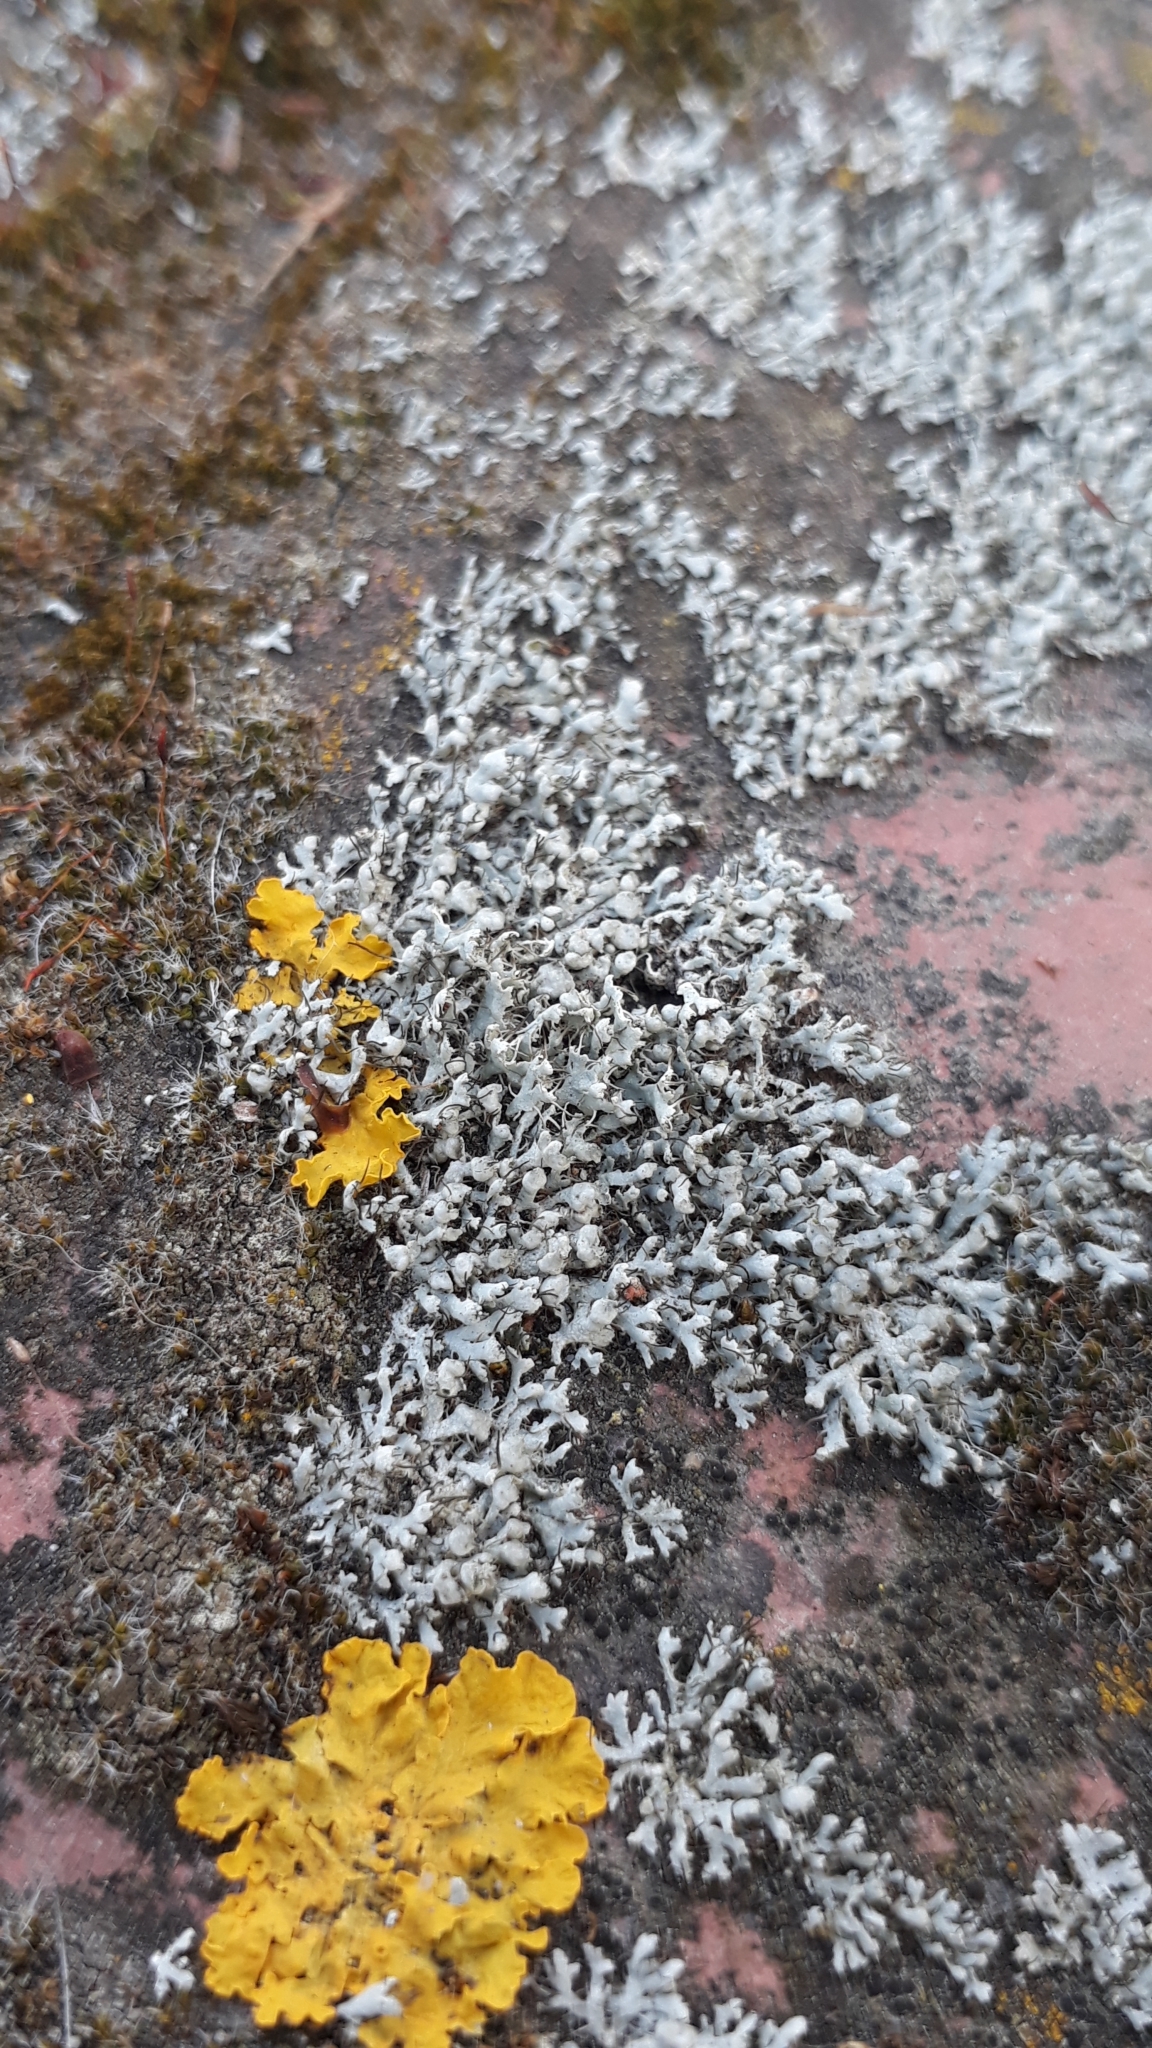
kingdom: Fungi
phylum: Ascomycota
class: Lecanoromycetes
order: Caliciales
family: Physciaceae
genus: Physcia
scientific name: Physcia adscendens
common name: Hooded rosette lichen
